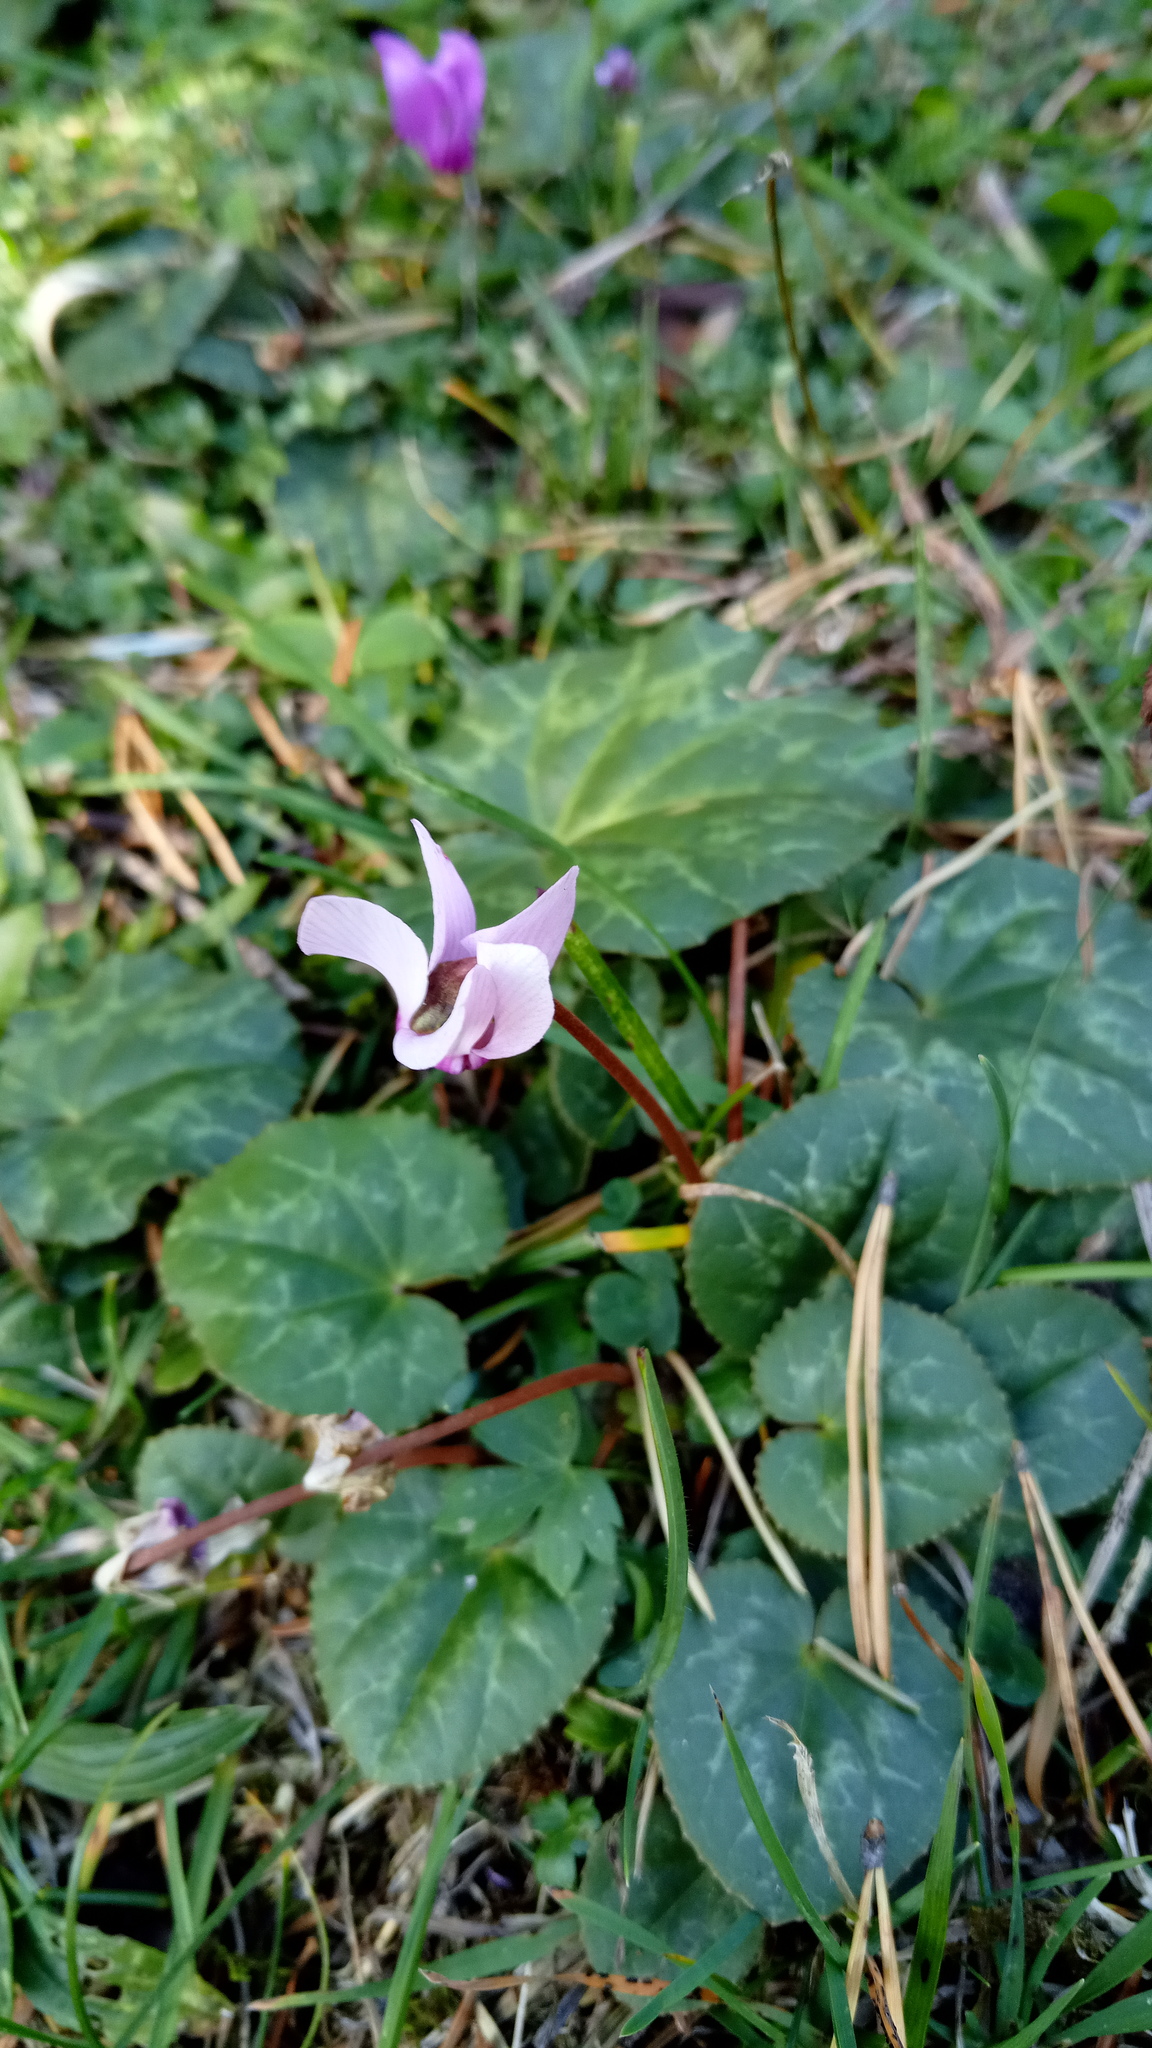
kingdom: Plantae
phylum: Tracheophyta
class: Magnoliopsida
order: Ericales
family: Primulaceae
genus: Cyclamen
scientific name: Cyclamen purpurascens
